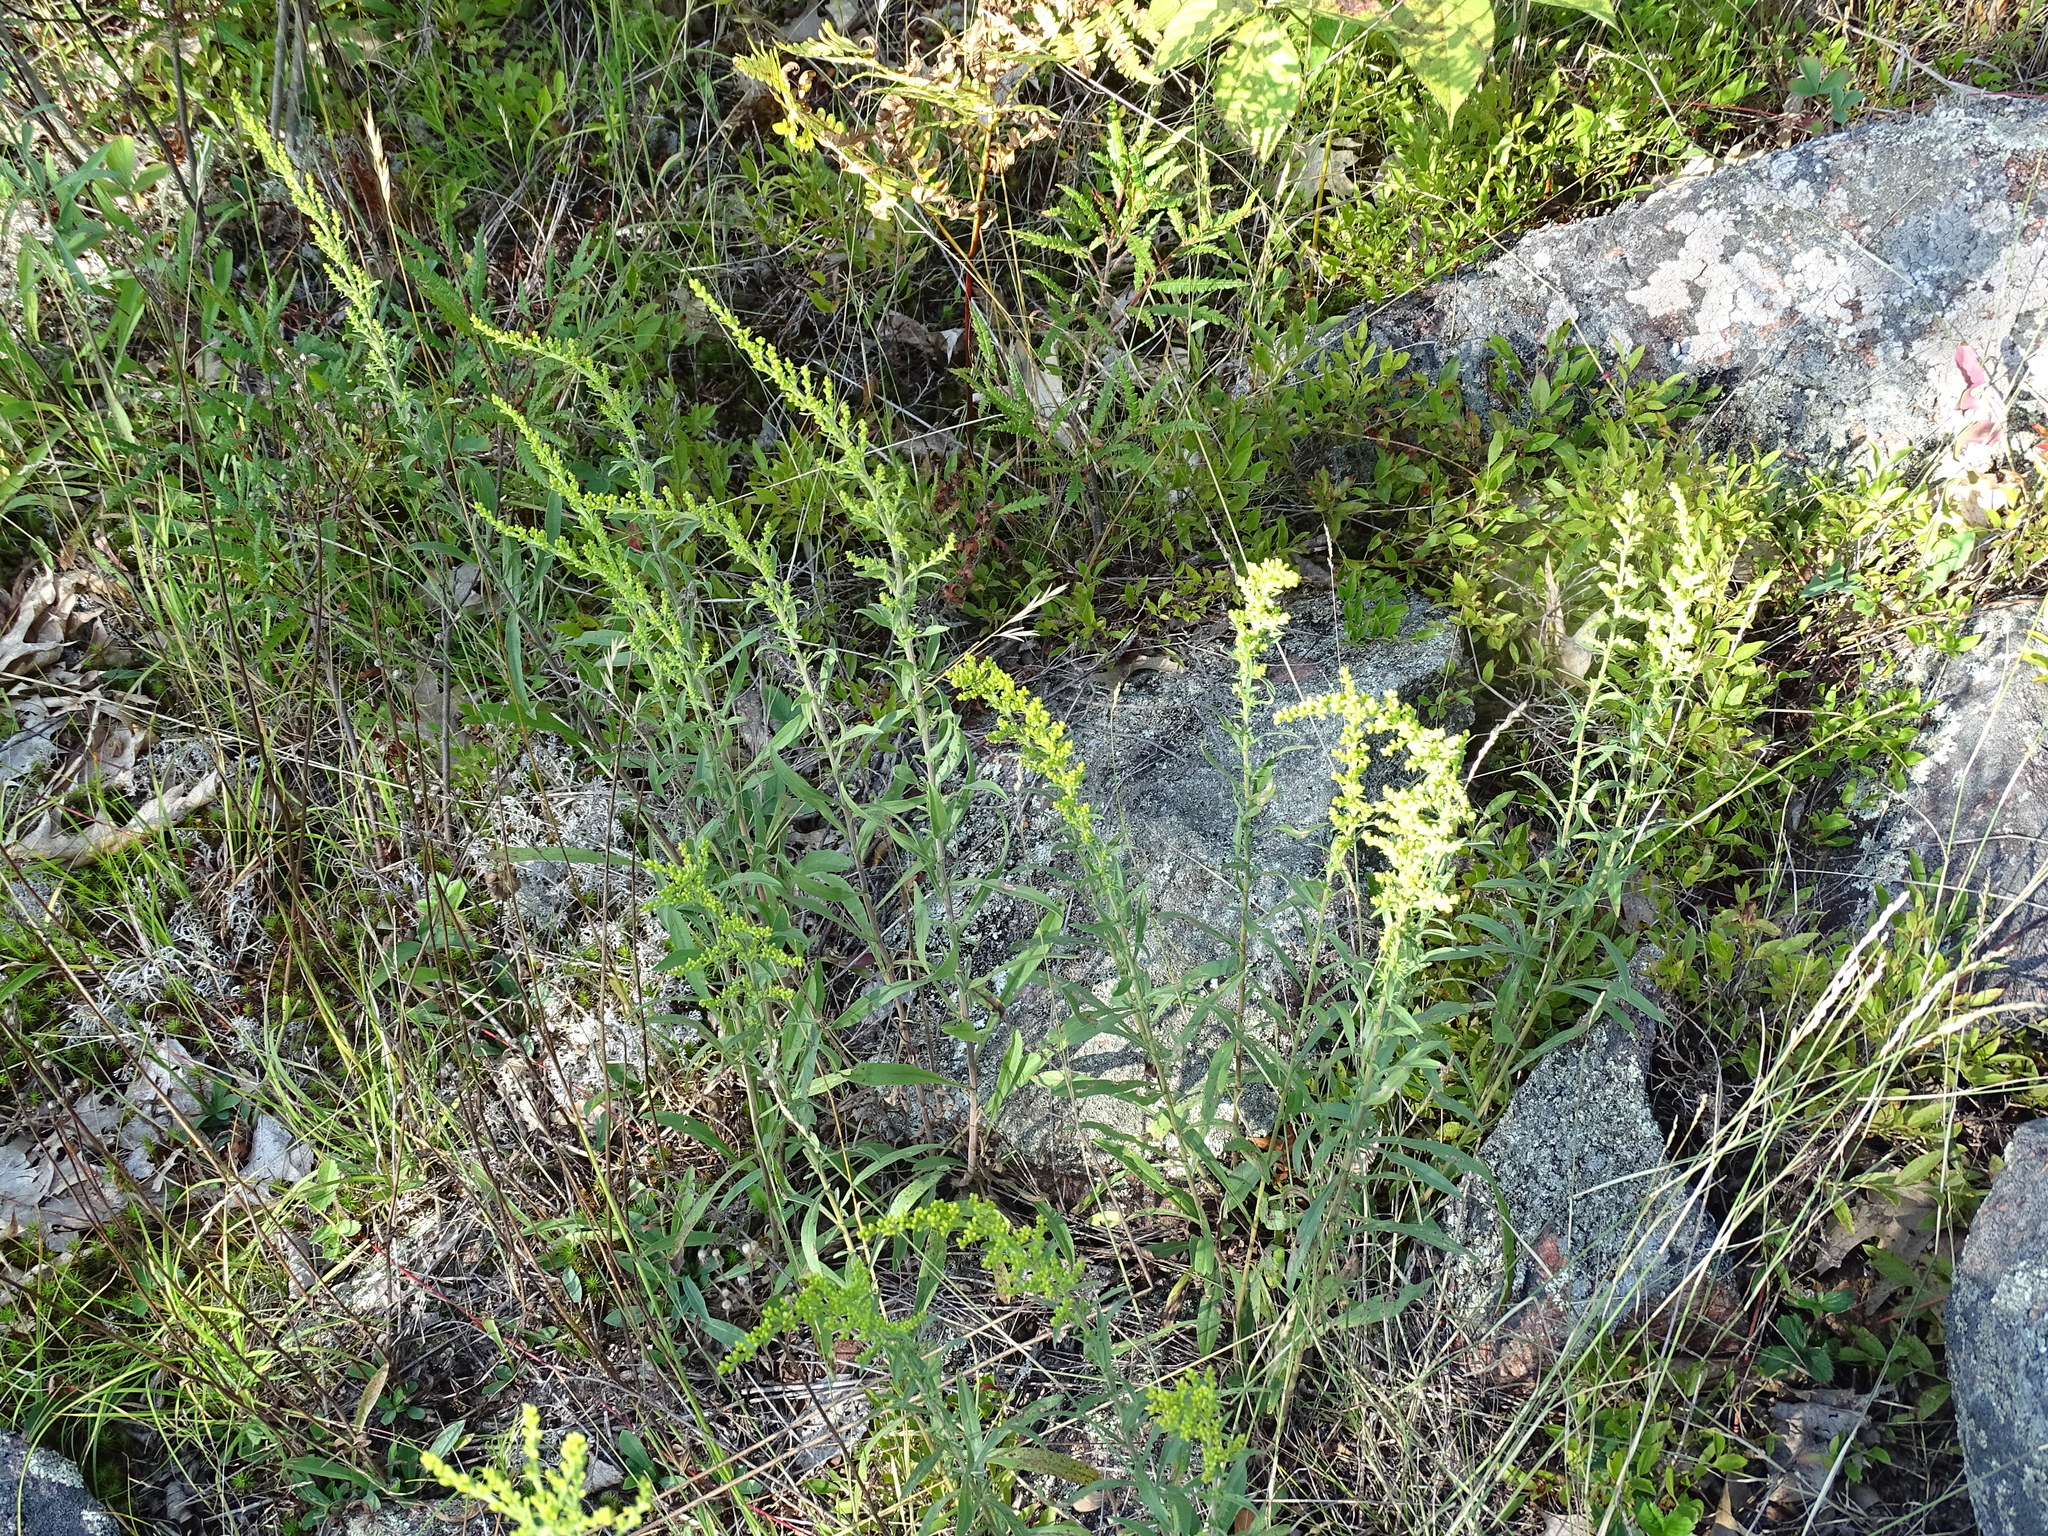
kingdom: Plantae
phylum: Tracheophyta
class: Magnoliopsida
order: Asterales
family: Asteraceae
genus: Solidago
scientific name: Solidago nemoralis
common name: Grey goldenrod
